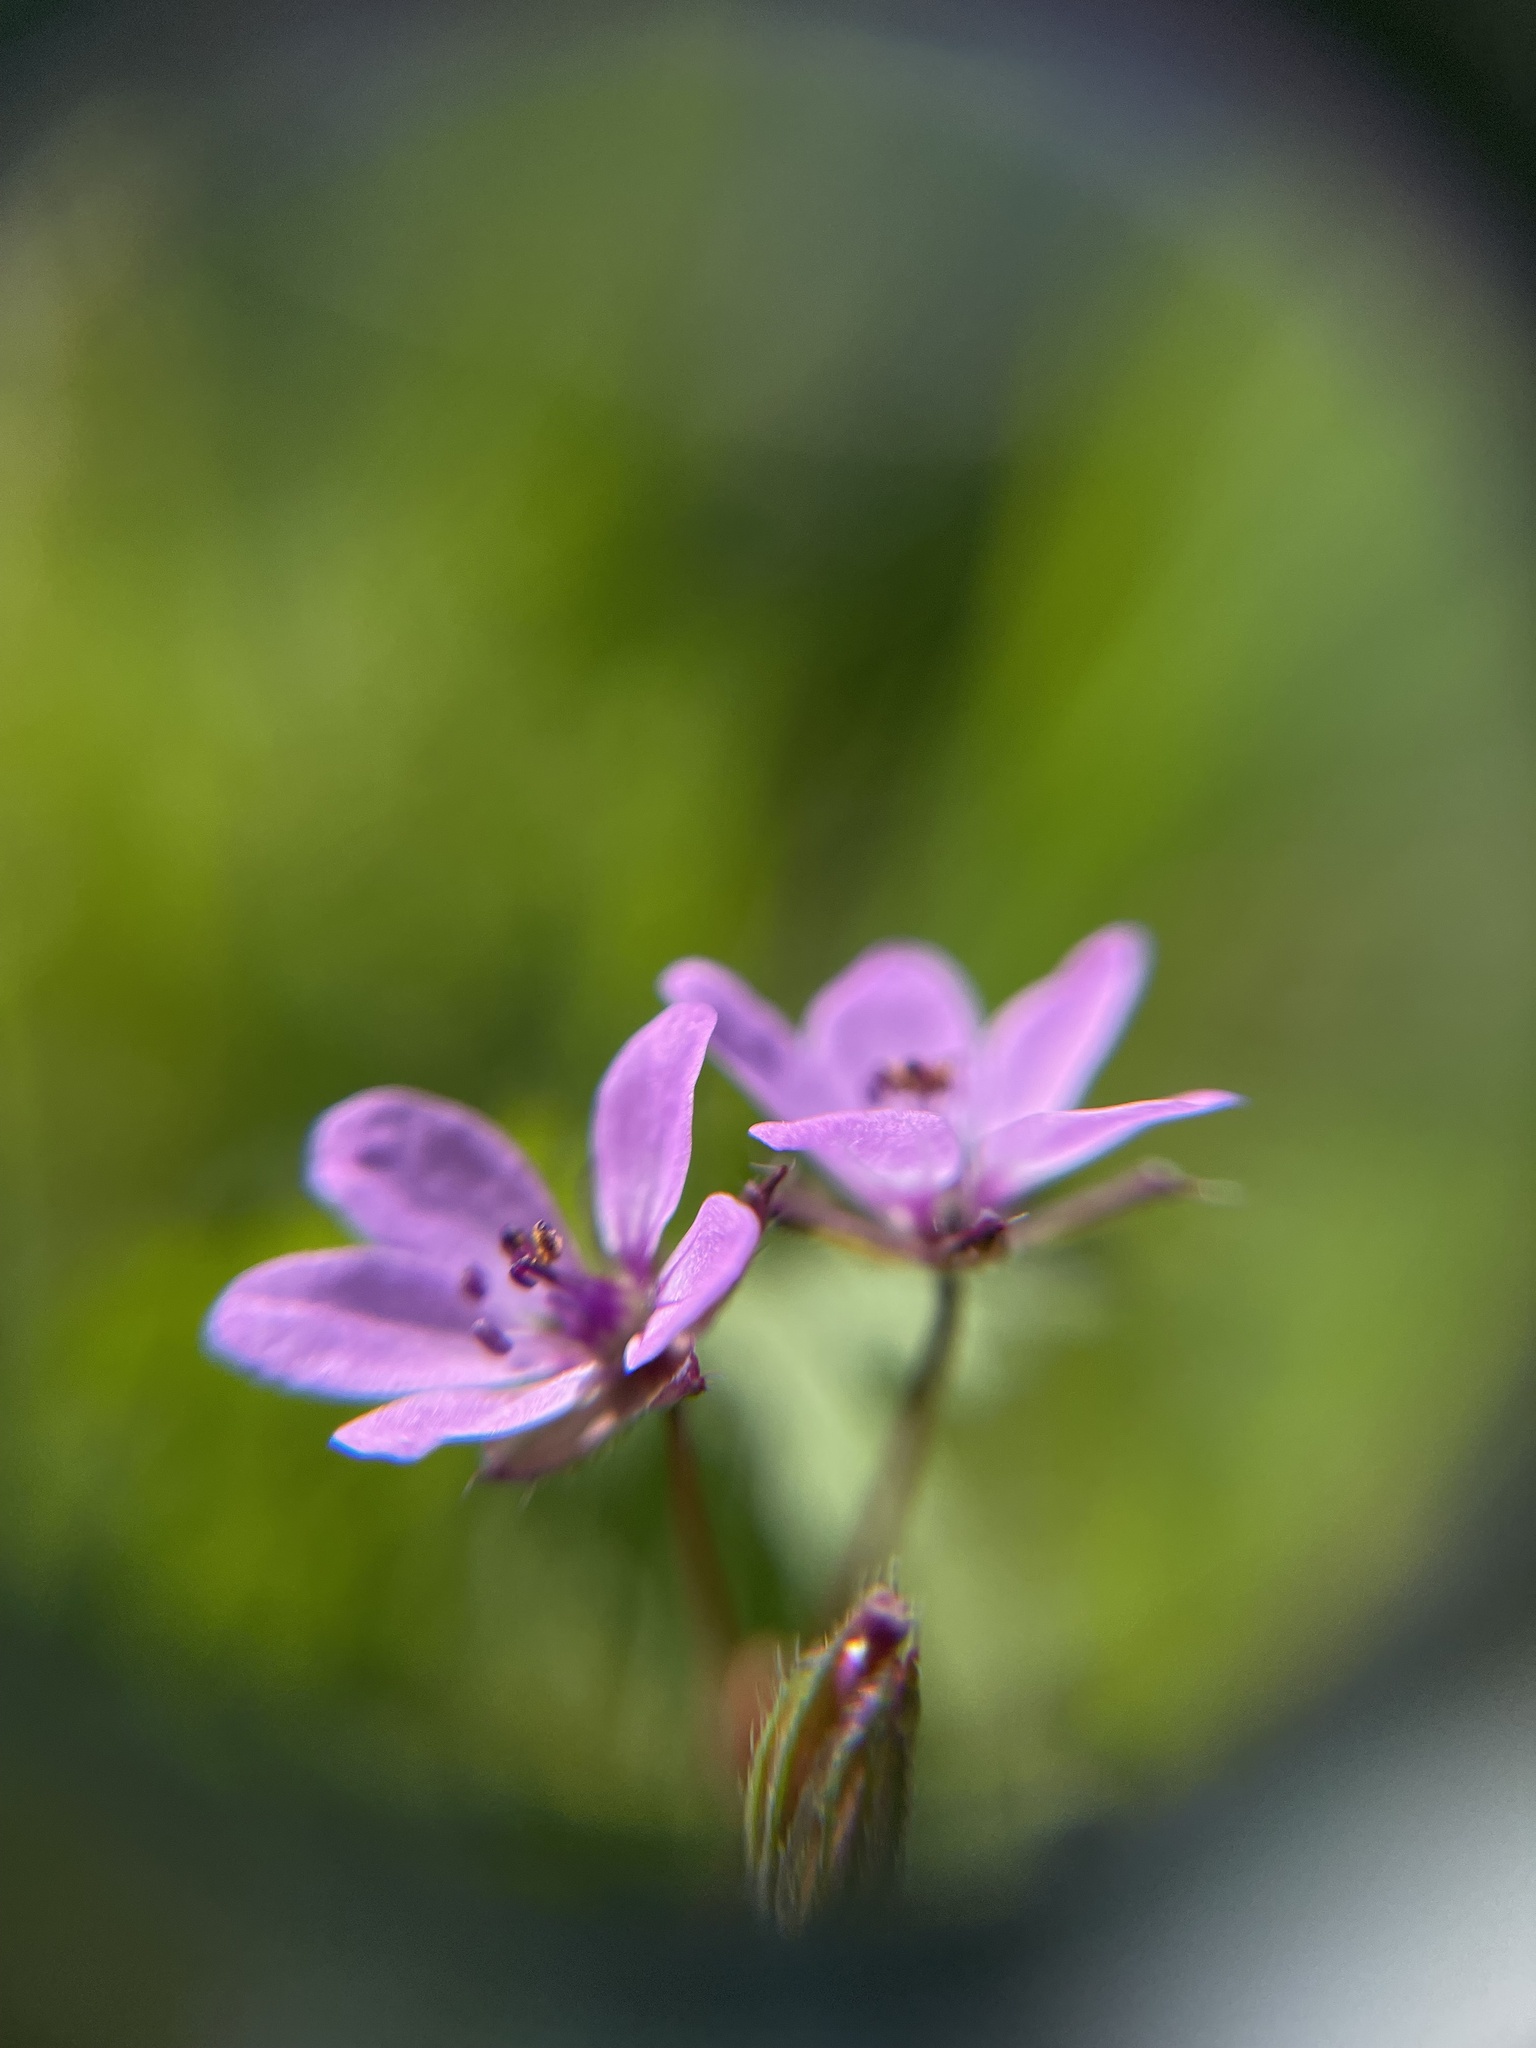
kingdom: Plantae
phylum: Tracheophyta
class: Magnoliopsida
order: Geraniales
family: Geraniaceae
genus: Erodium
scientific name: Erodium cicutarium
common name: Common stork's-bill
